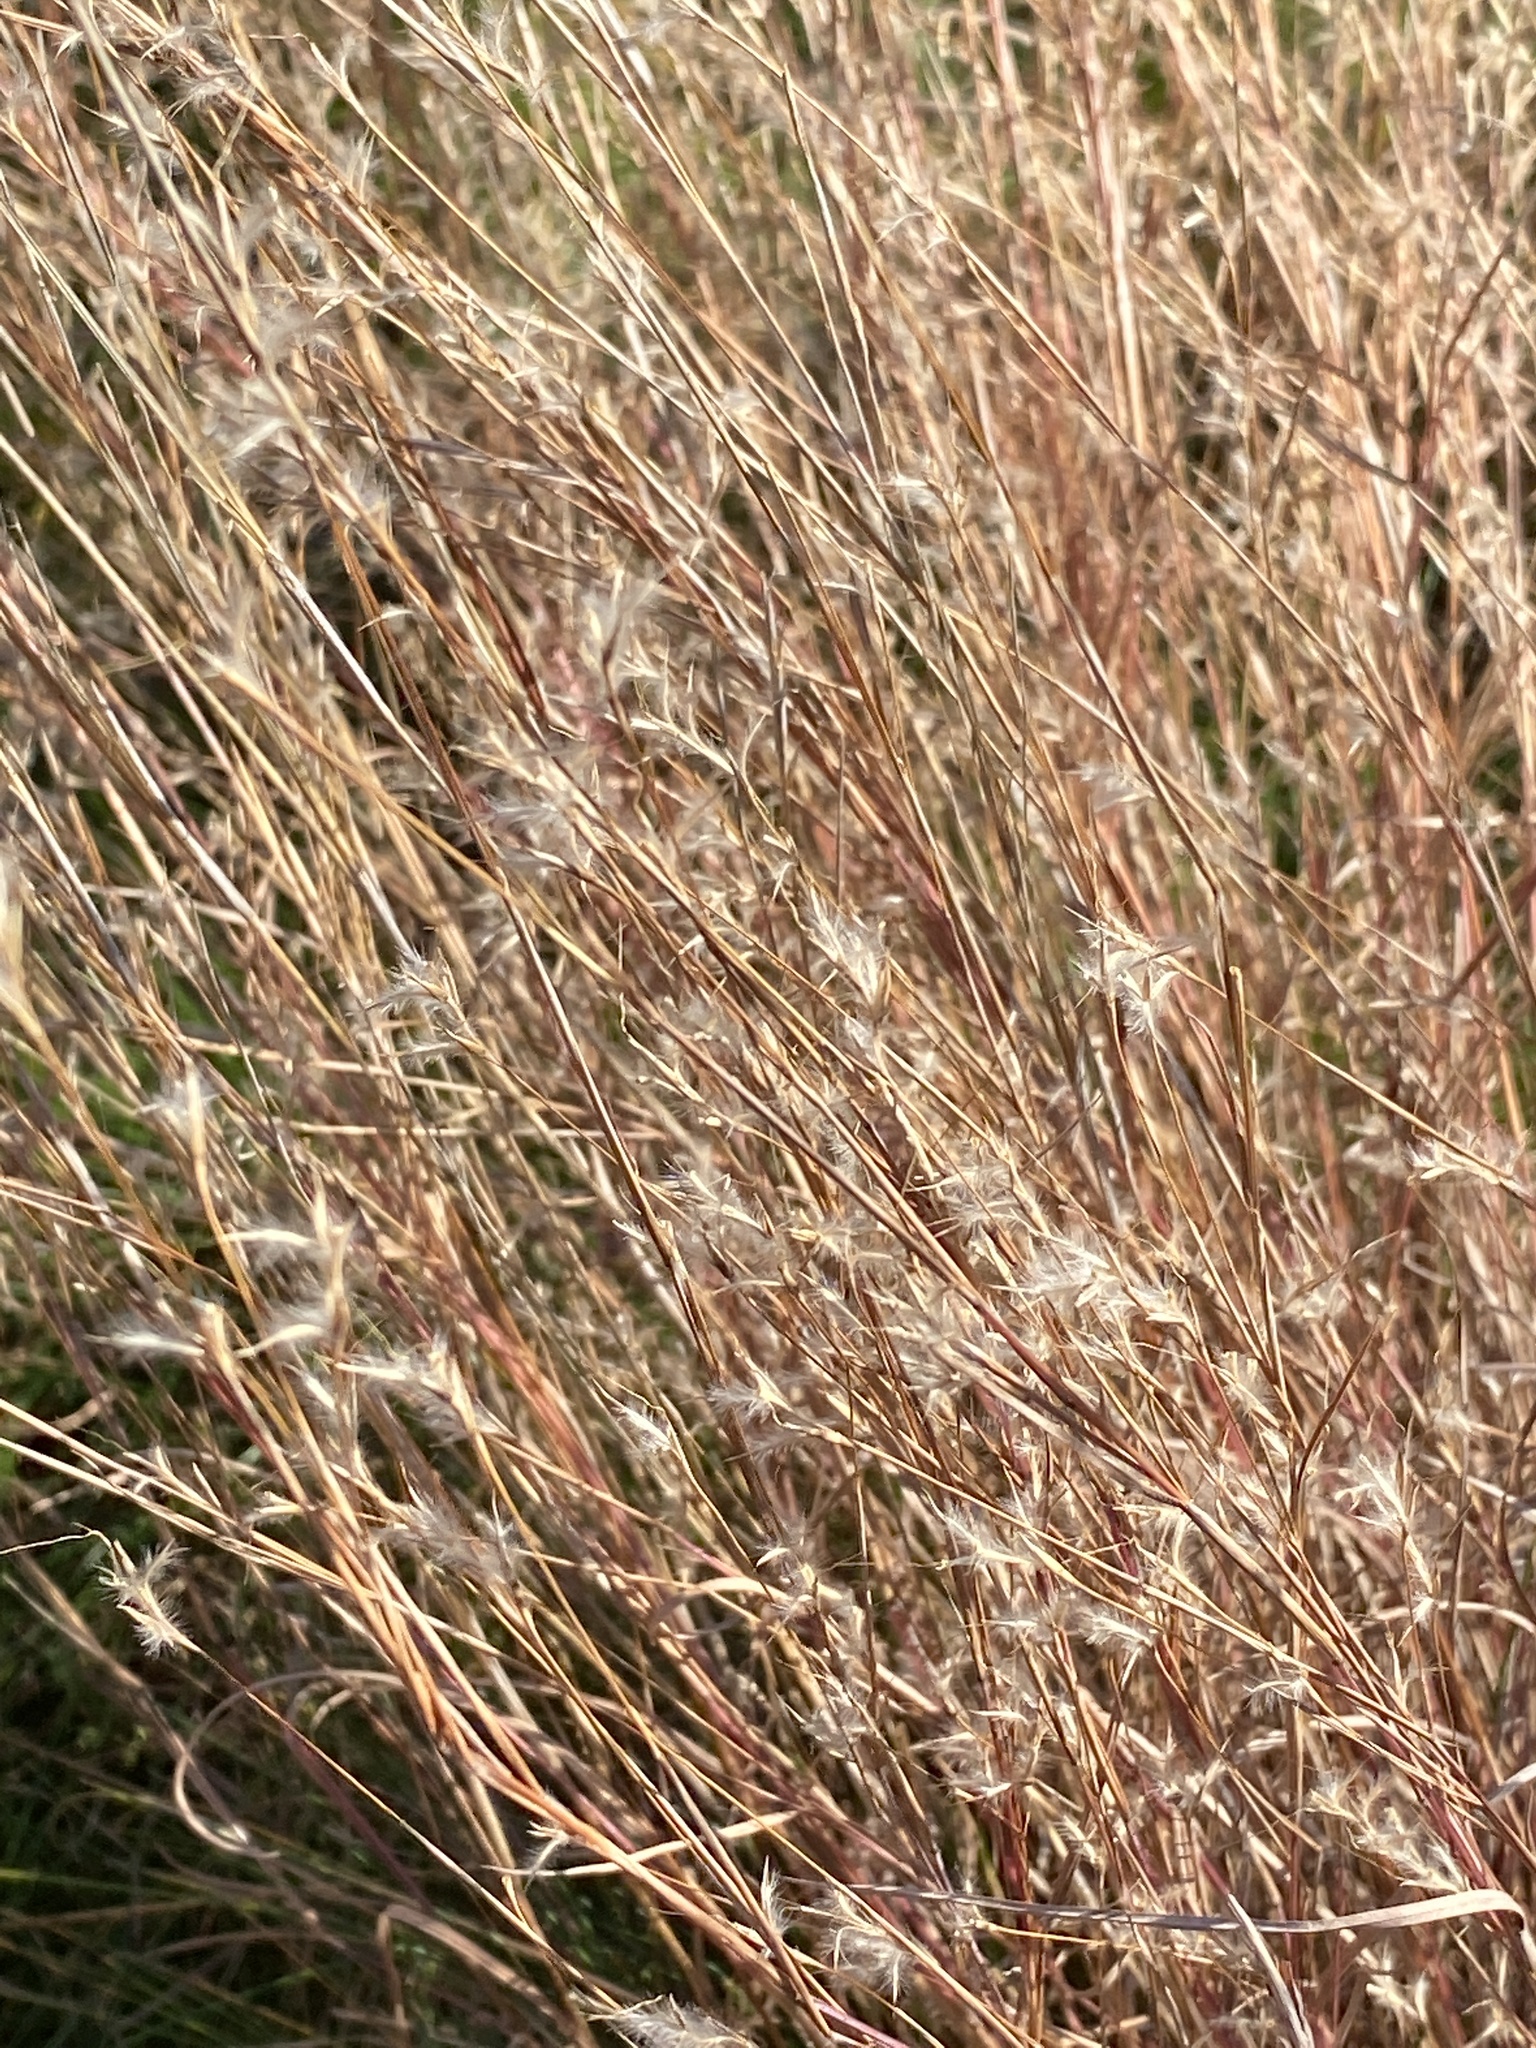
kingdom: Plantae
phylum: Tracheophyta
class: Liliopsida
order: Poales
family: Poaceae
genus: Schizachyrium
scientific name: Schizachyrium scoparium
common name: Little bluestem
